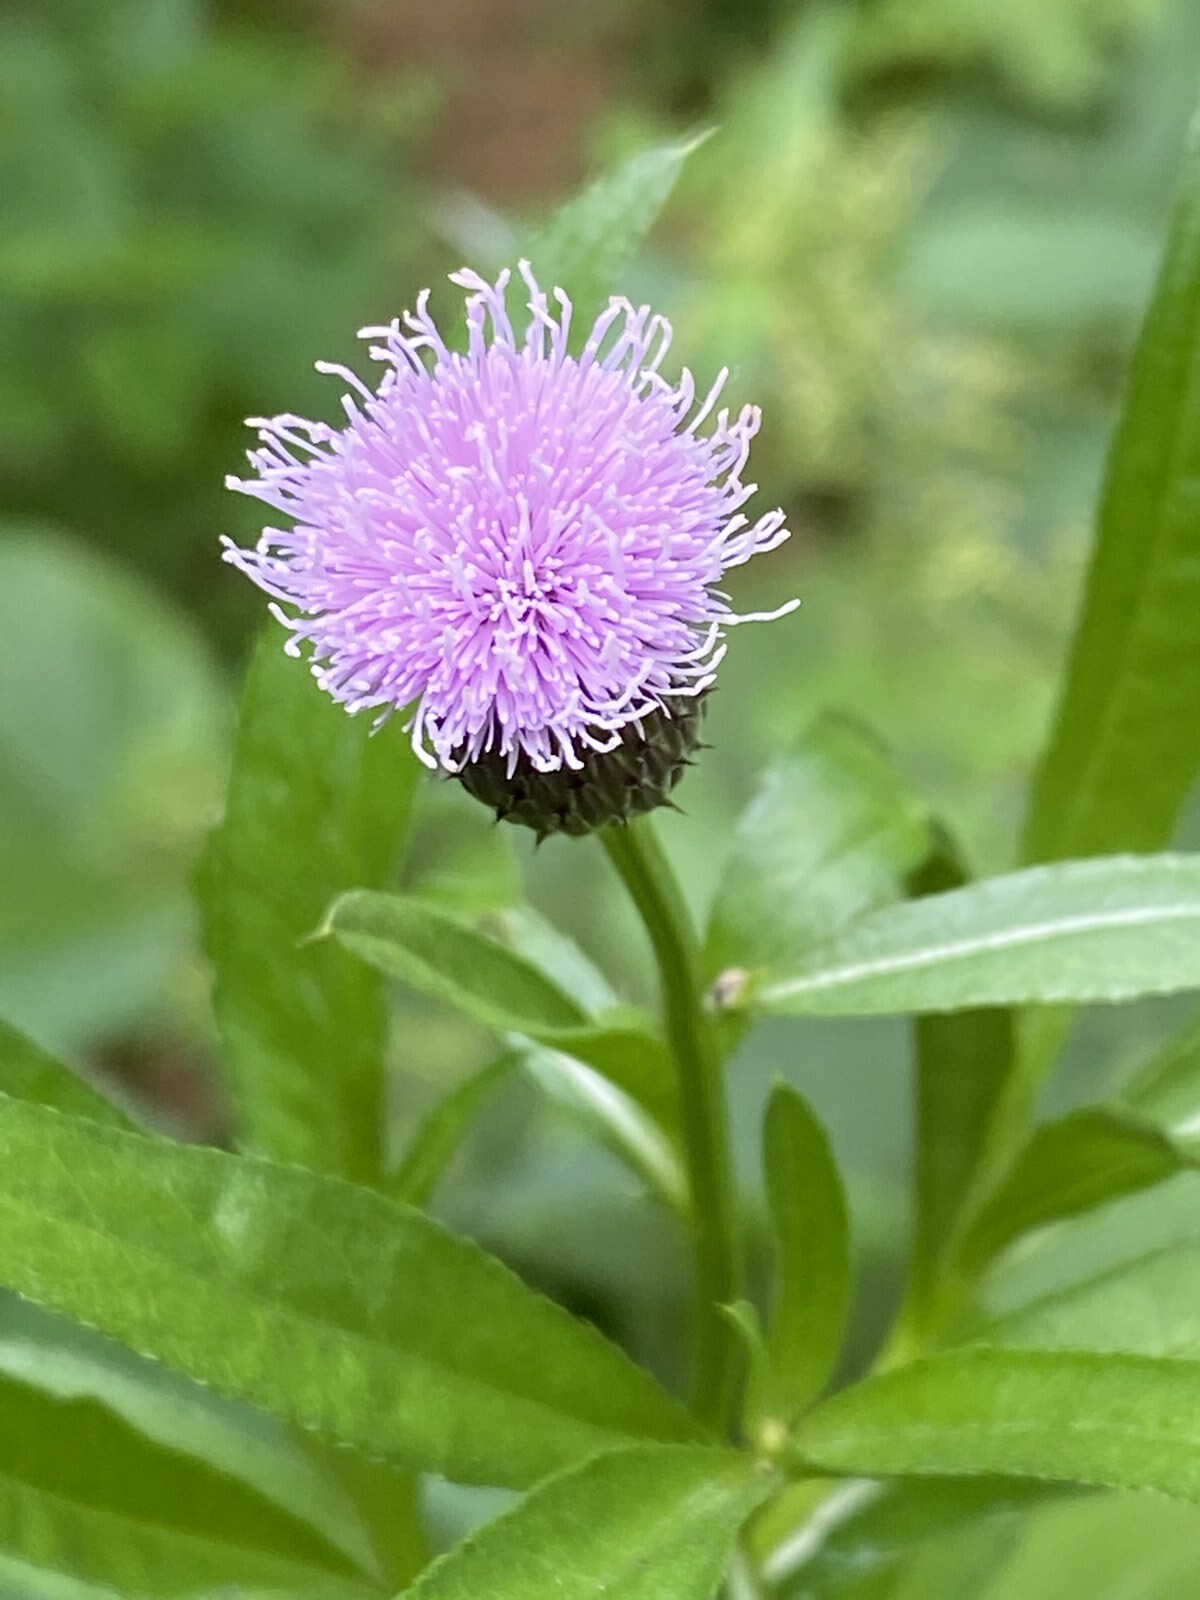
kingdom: Plantae
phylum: Tracheophyta
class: Magnoliopsida
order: Asterales
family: Asteraceae
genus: Cirsium
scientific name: Cirsium heterophyllum
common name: Melancholy thistle
